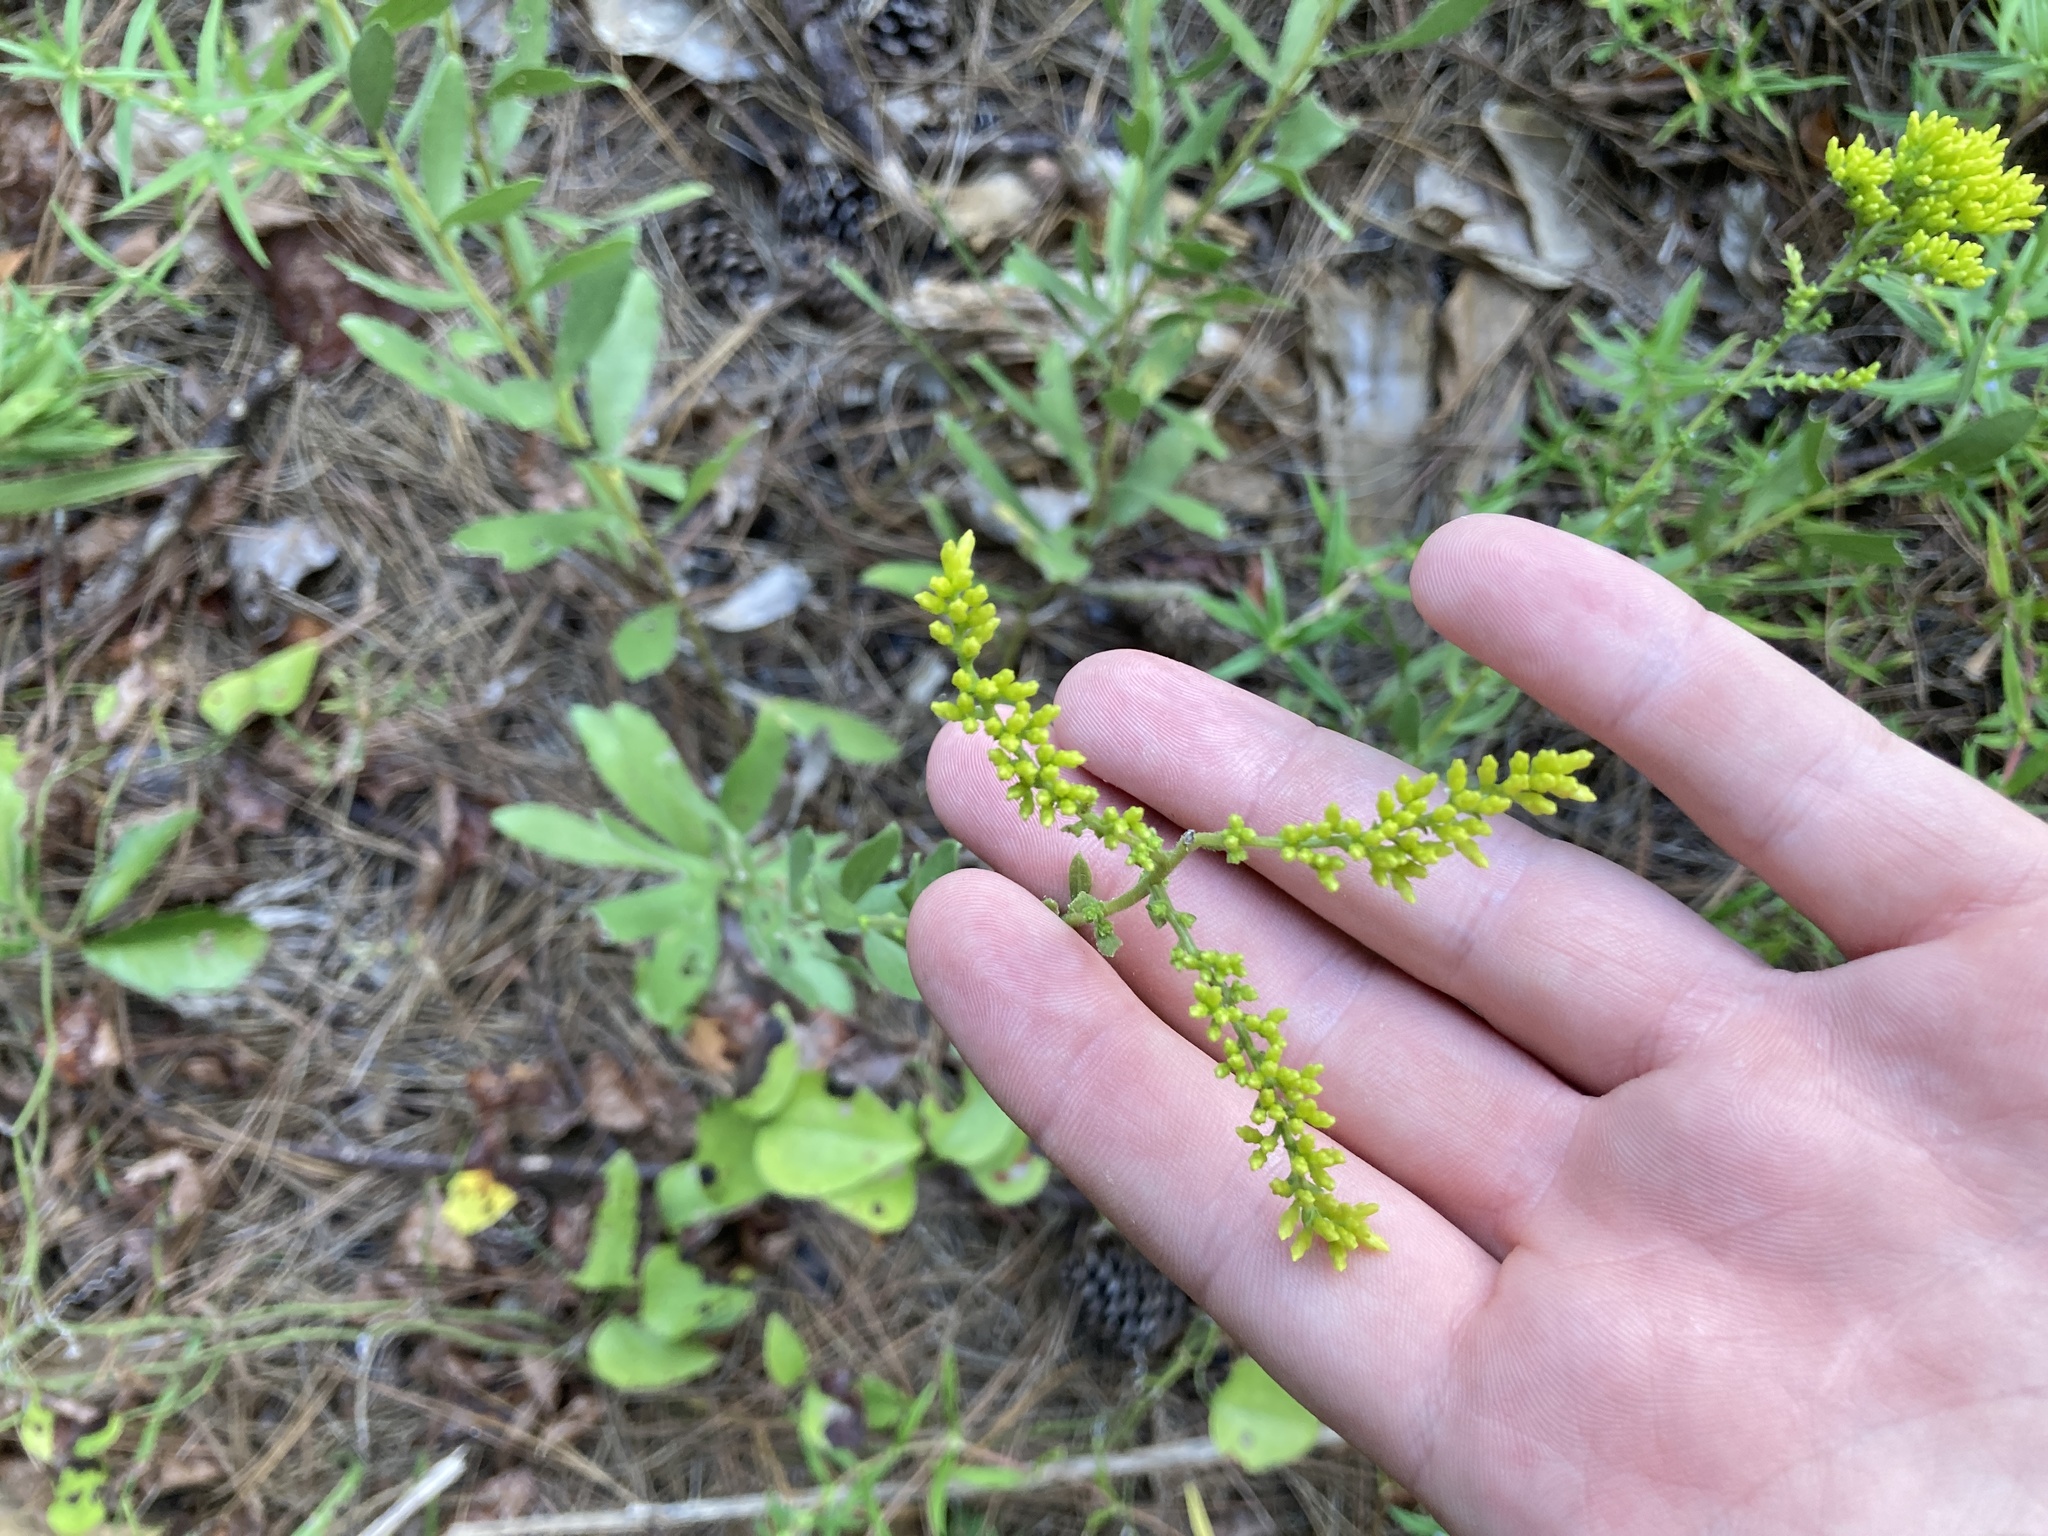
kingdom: Plantae
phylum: Tracheophyta
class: Magnoliopsida
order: Asterales
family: Asteraceae
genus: Solidago
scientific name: Solidago nemoralis
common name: Grey goldenrod
